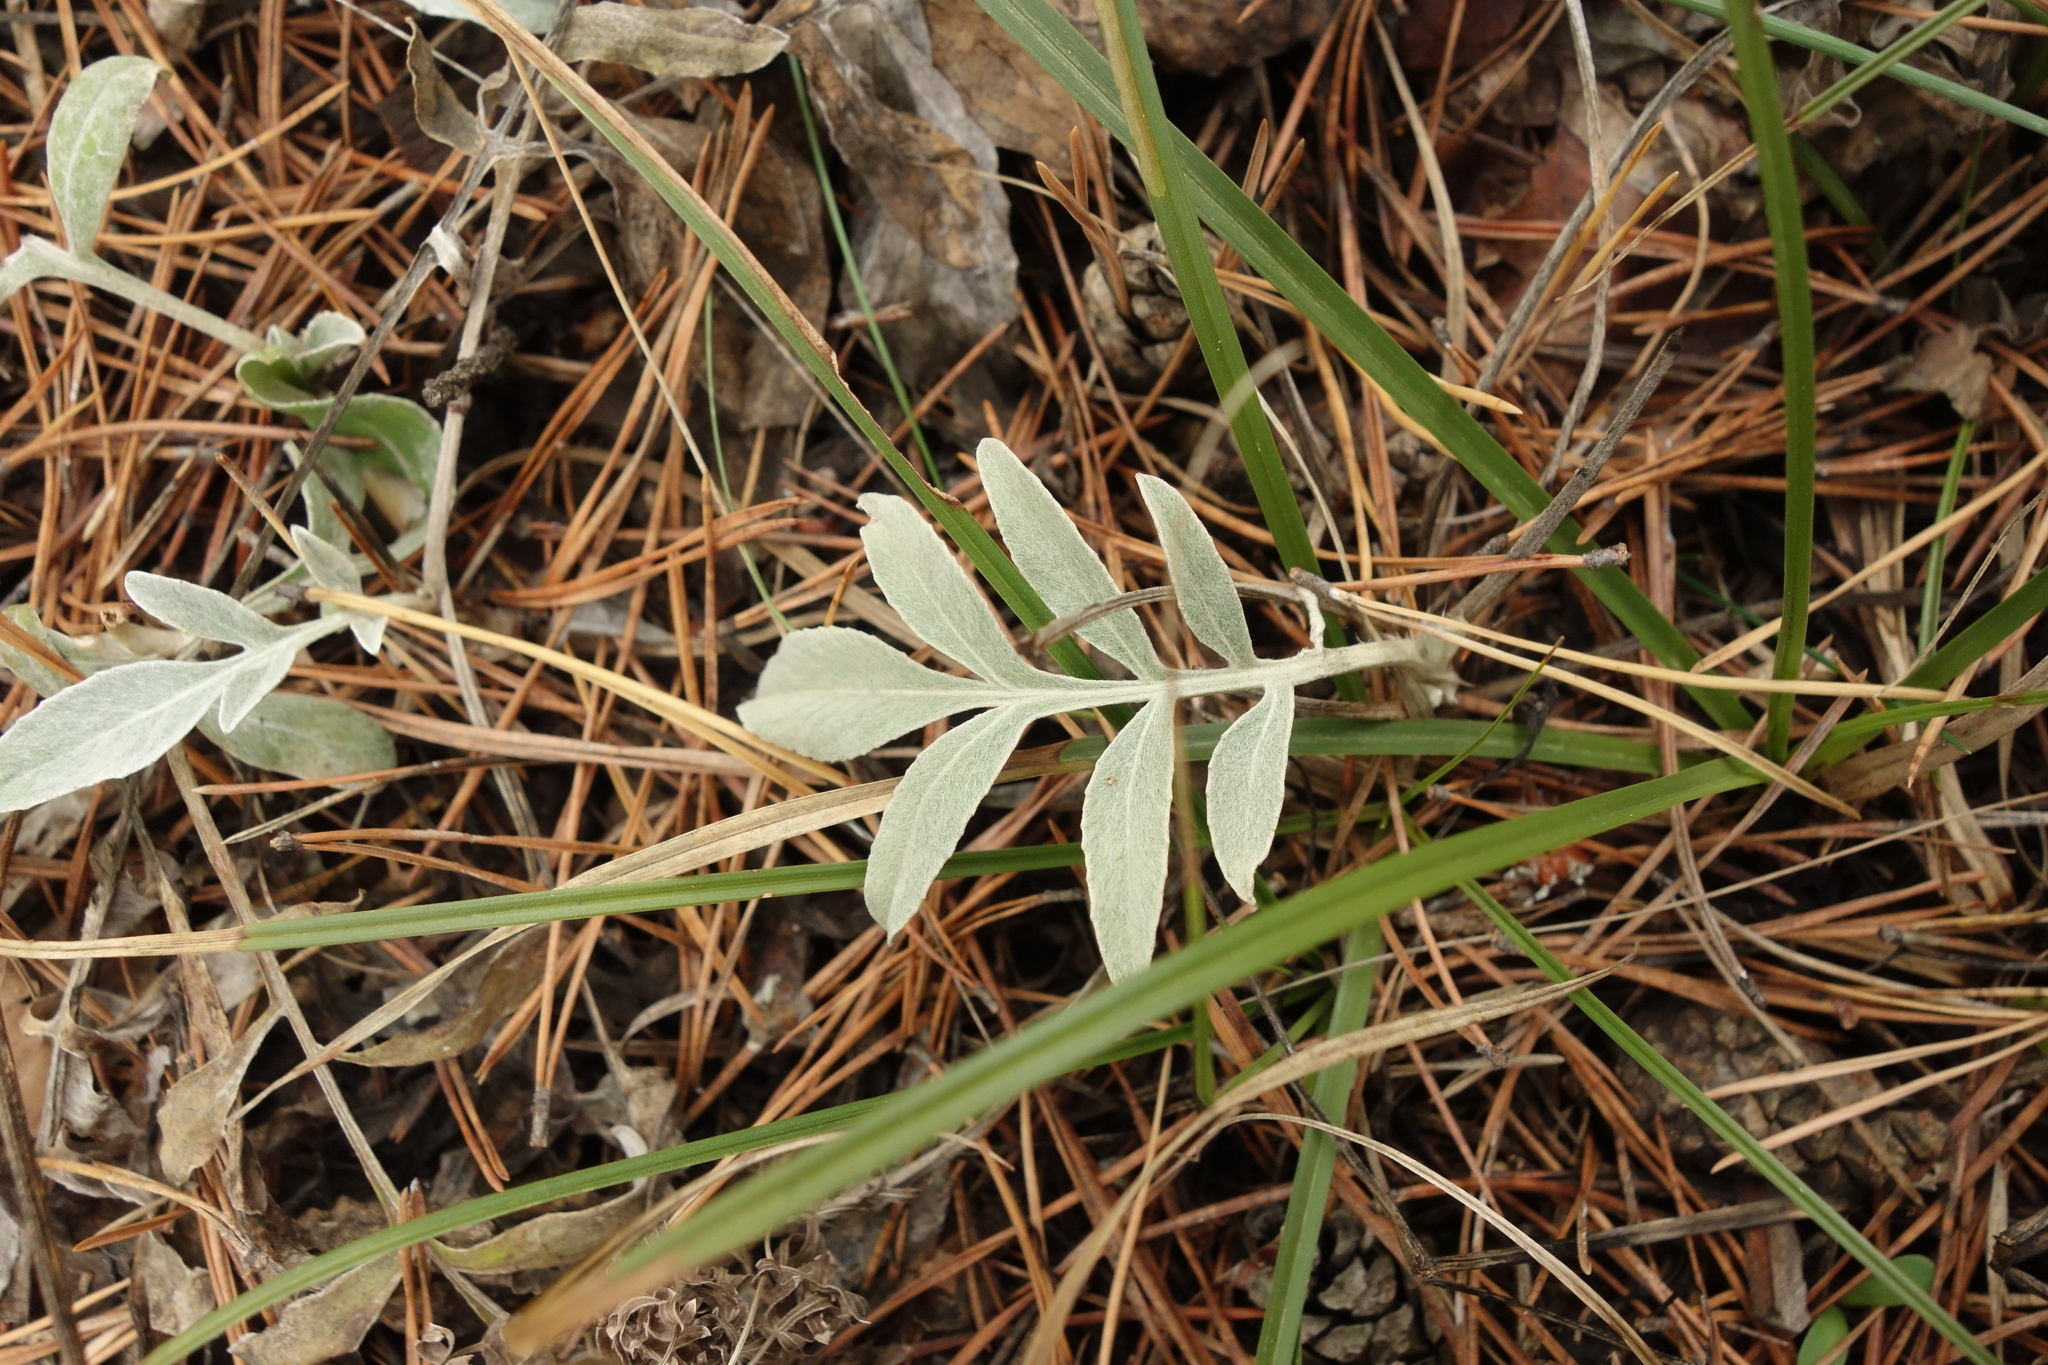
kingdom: Plantae
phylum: Tracheophyta
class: Magnoliopsida
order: Asterales
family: Asteraceae
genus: Psephellus
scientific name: Psephellus sumensis
